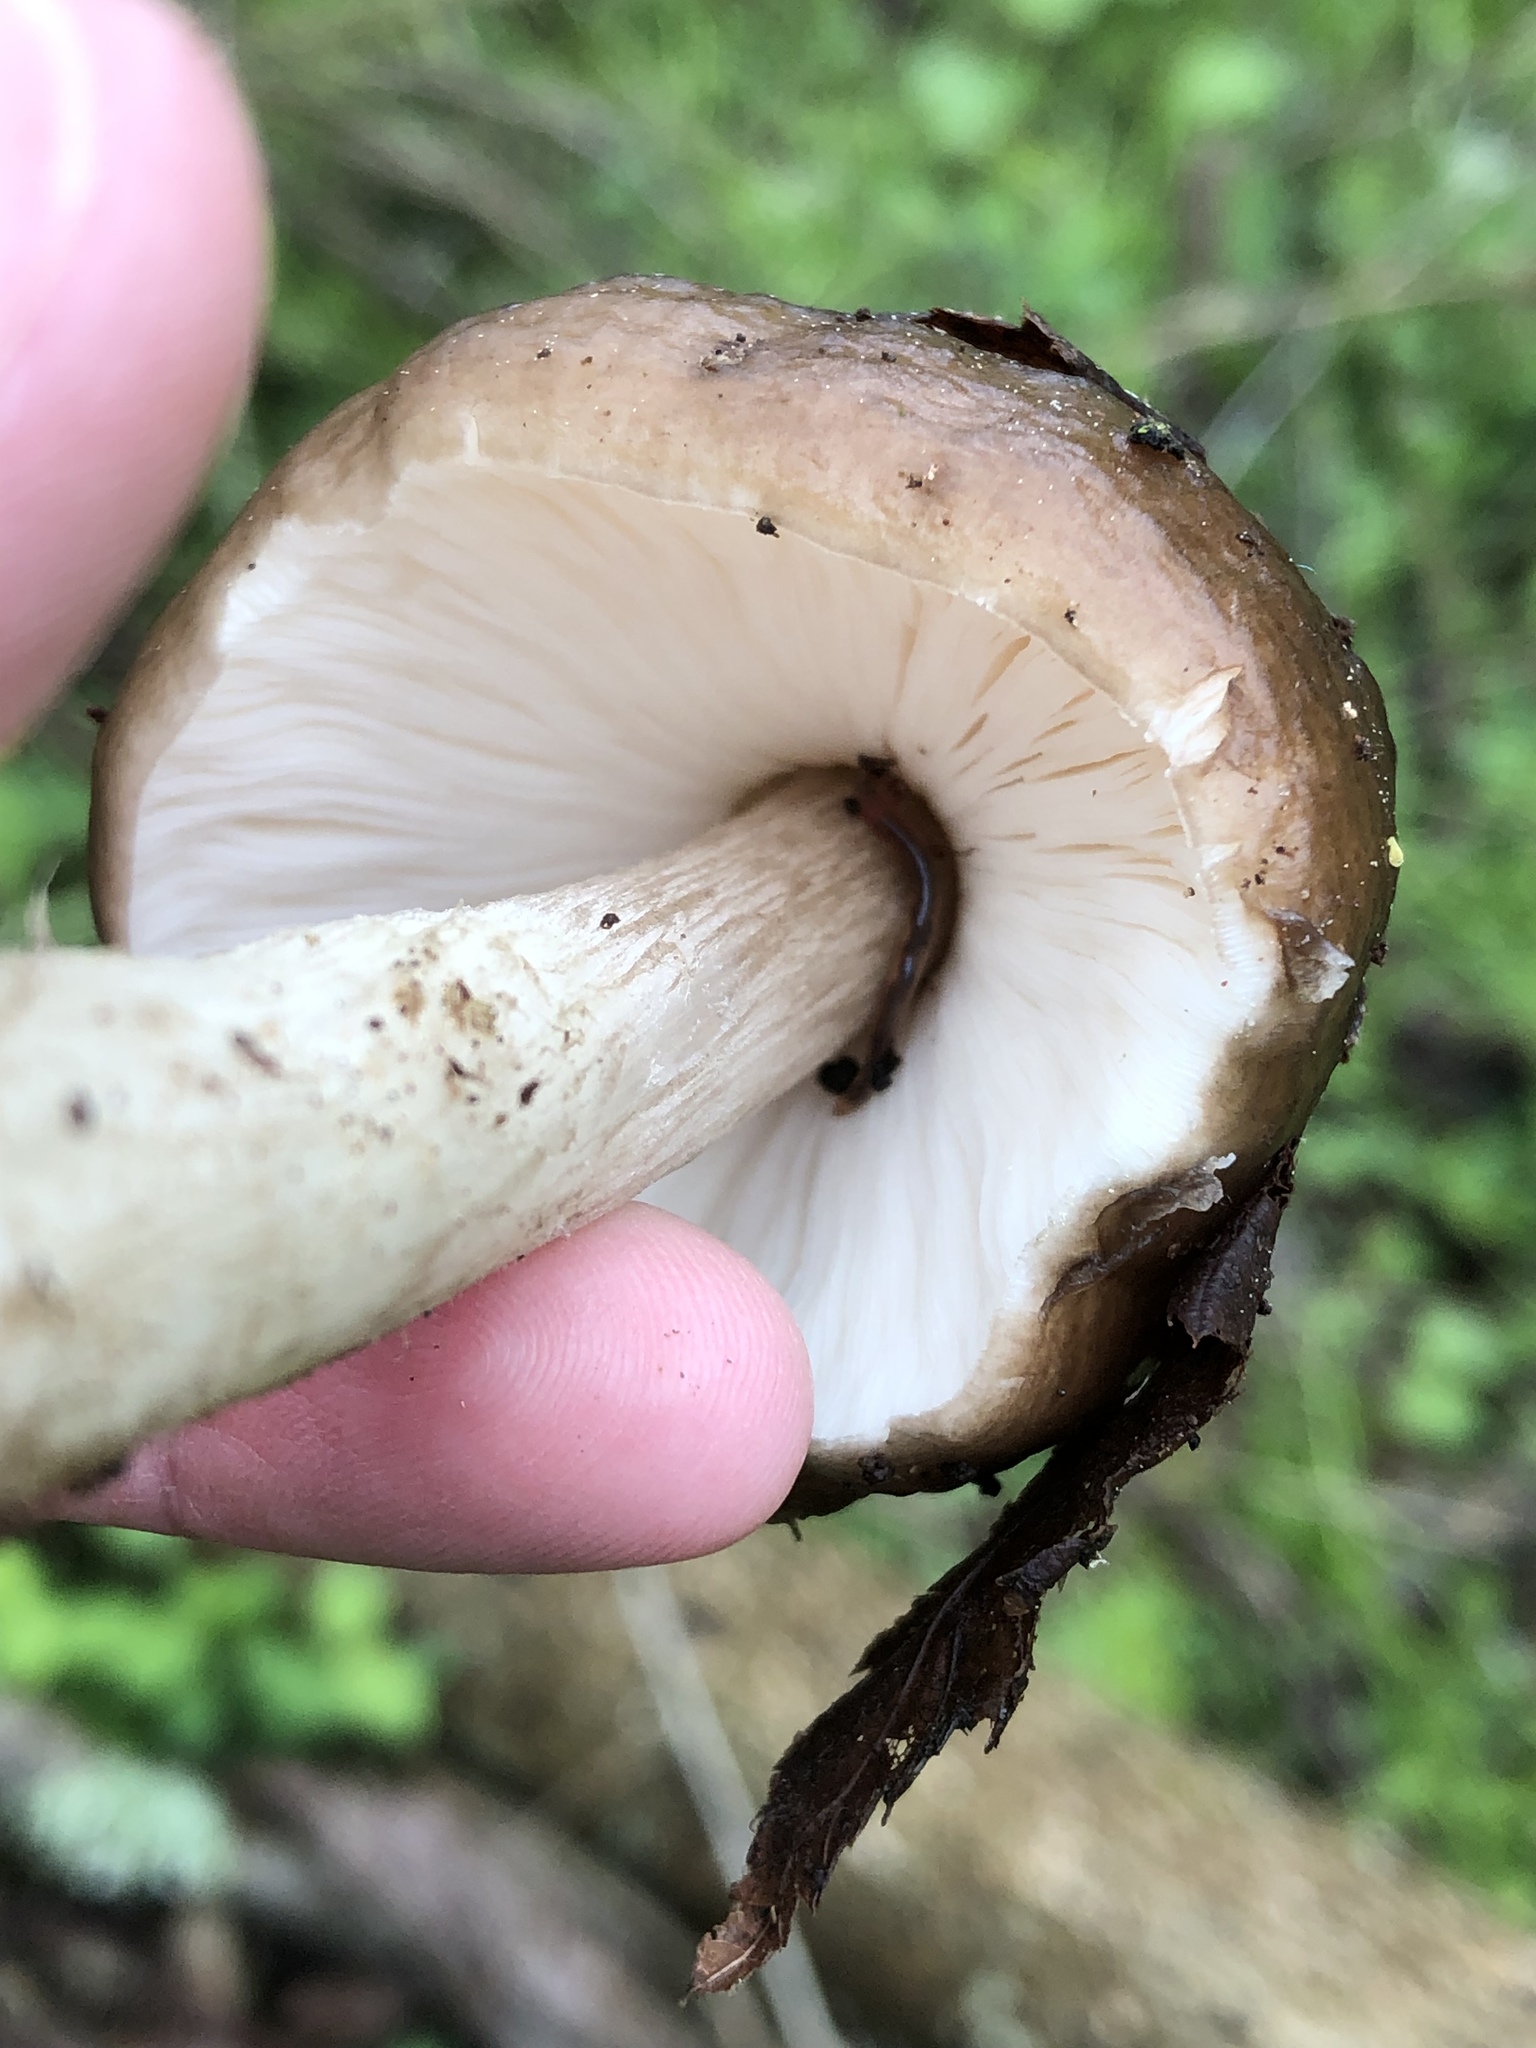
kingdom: Fungi
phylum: Basidiomycota
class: Agaricomycetes
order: Agaricales
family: Pluteaceae
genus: Pluteus
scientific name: Pluteus cervinus
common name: Deer shield
